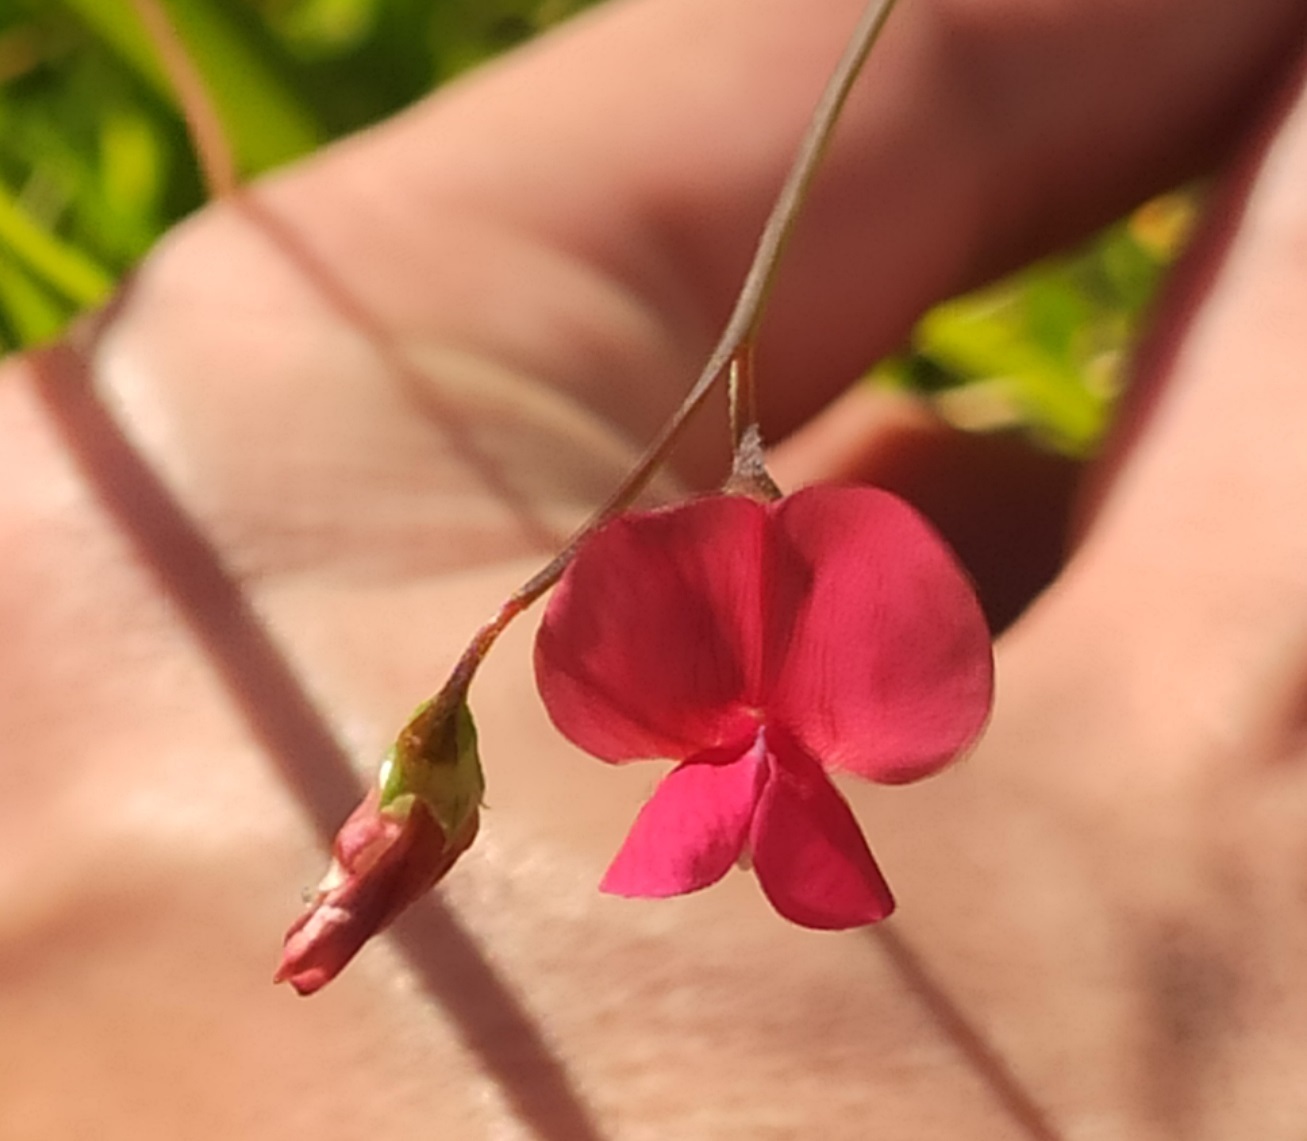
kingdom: Plantae
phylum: Tracheophyta
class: Magnoliopsida
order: Fabales
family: Fabaceae
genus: Lathyrus
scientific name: Lathyrus nissolia
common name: Grass vetchling
